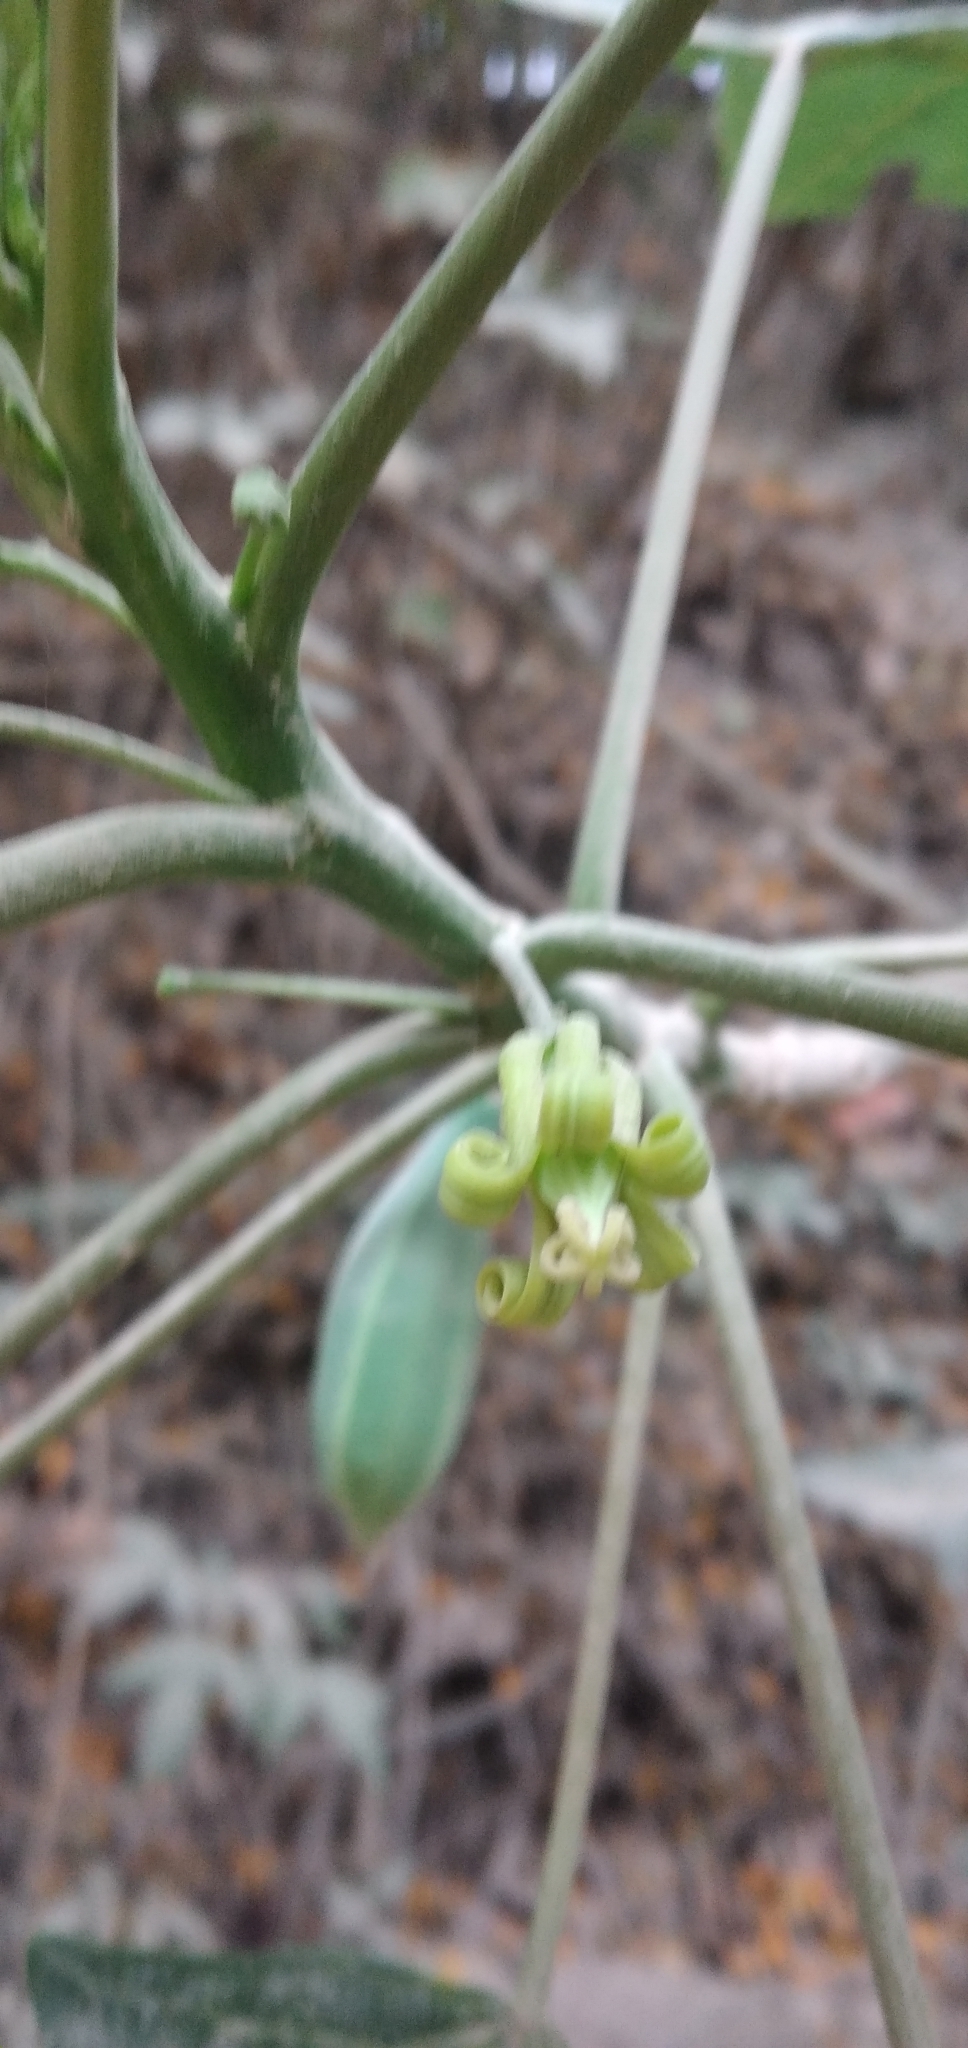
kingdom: Plantae
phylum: Tracheophyta
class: Magnoliopsida
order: Brassicales
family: Caricaceae
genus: Vasconcellea
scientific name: Vasconcellea quercifolia
